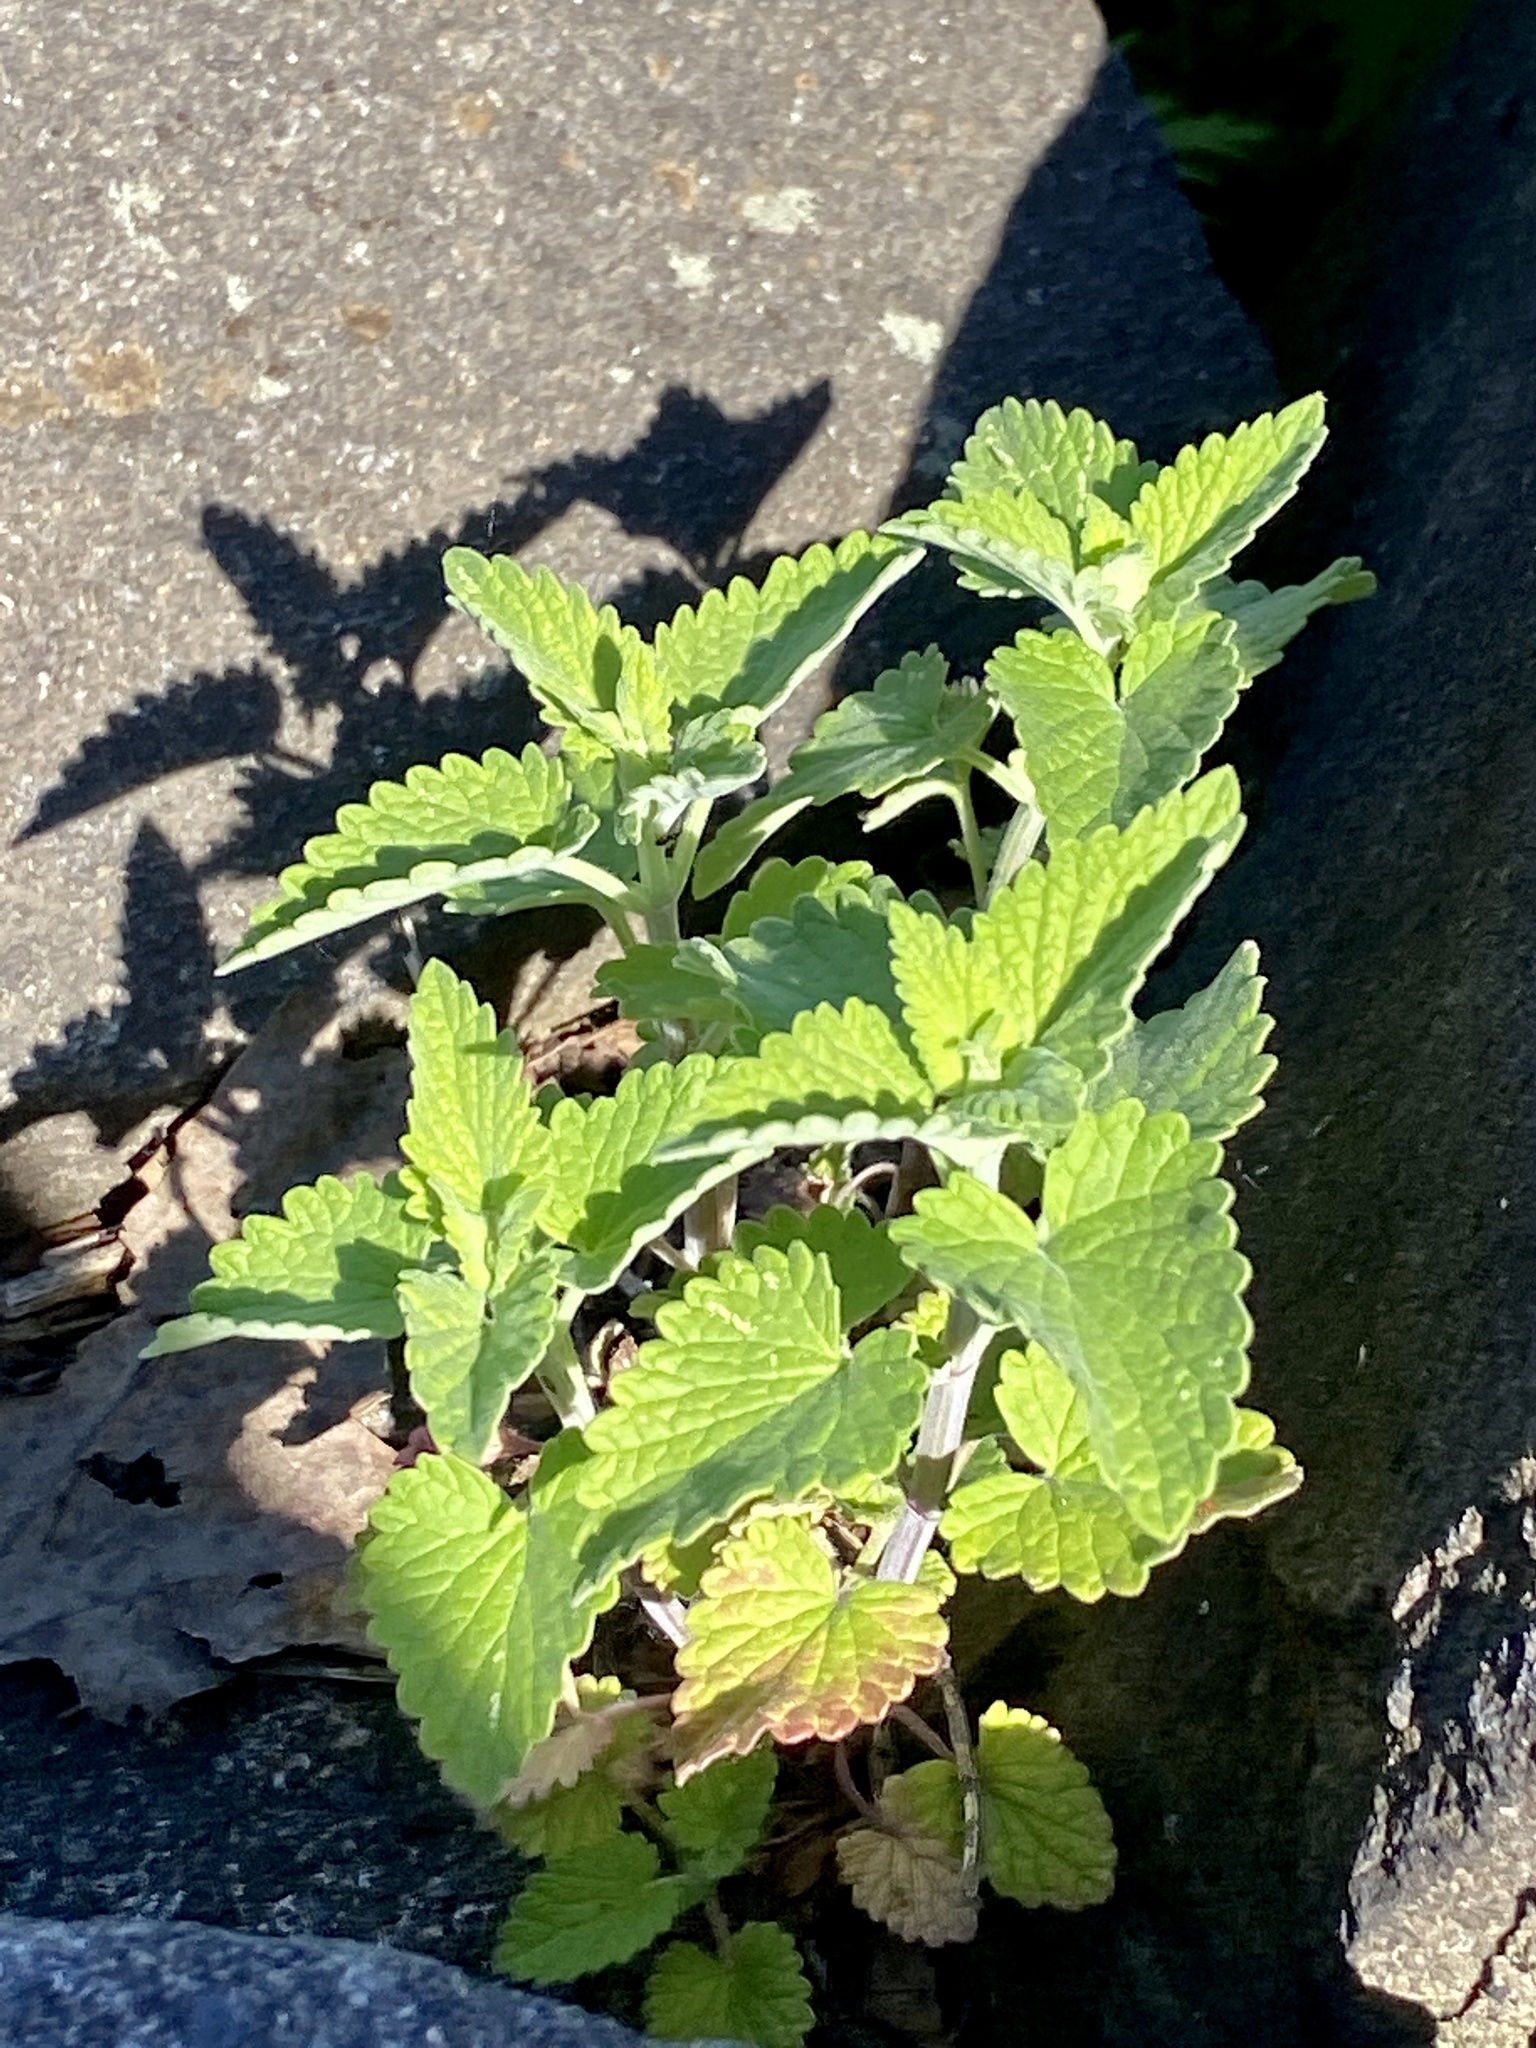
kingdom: Plantae
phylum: Tracheophyta
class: Magnoliopsida
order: Lamiales
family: Lamiaceae
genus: Nepeta
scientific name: Nepeta cataria
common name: Catnip
